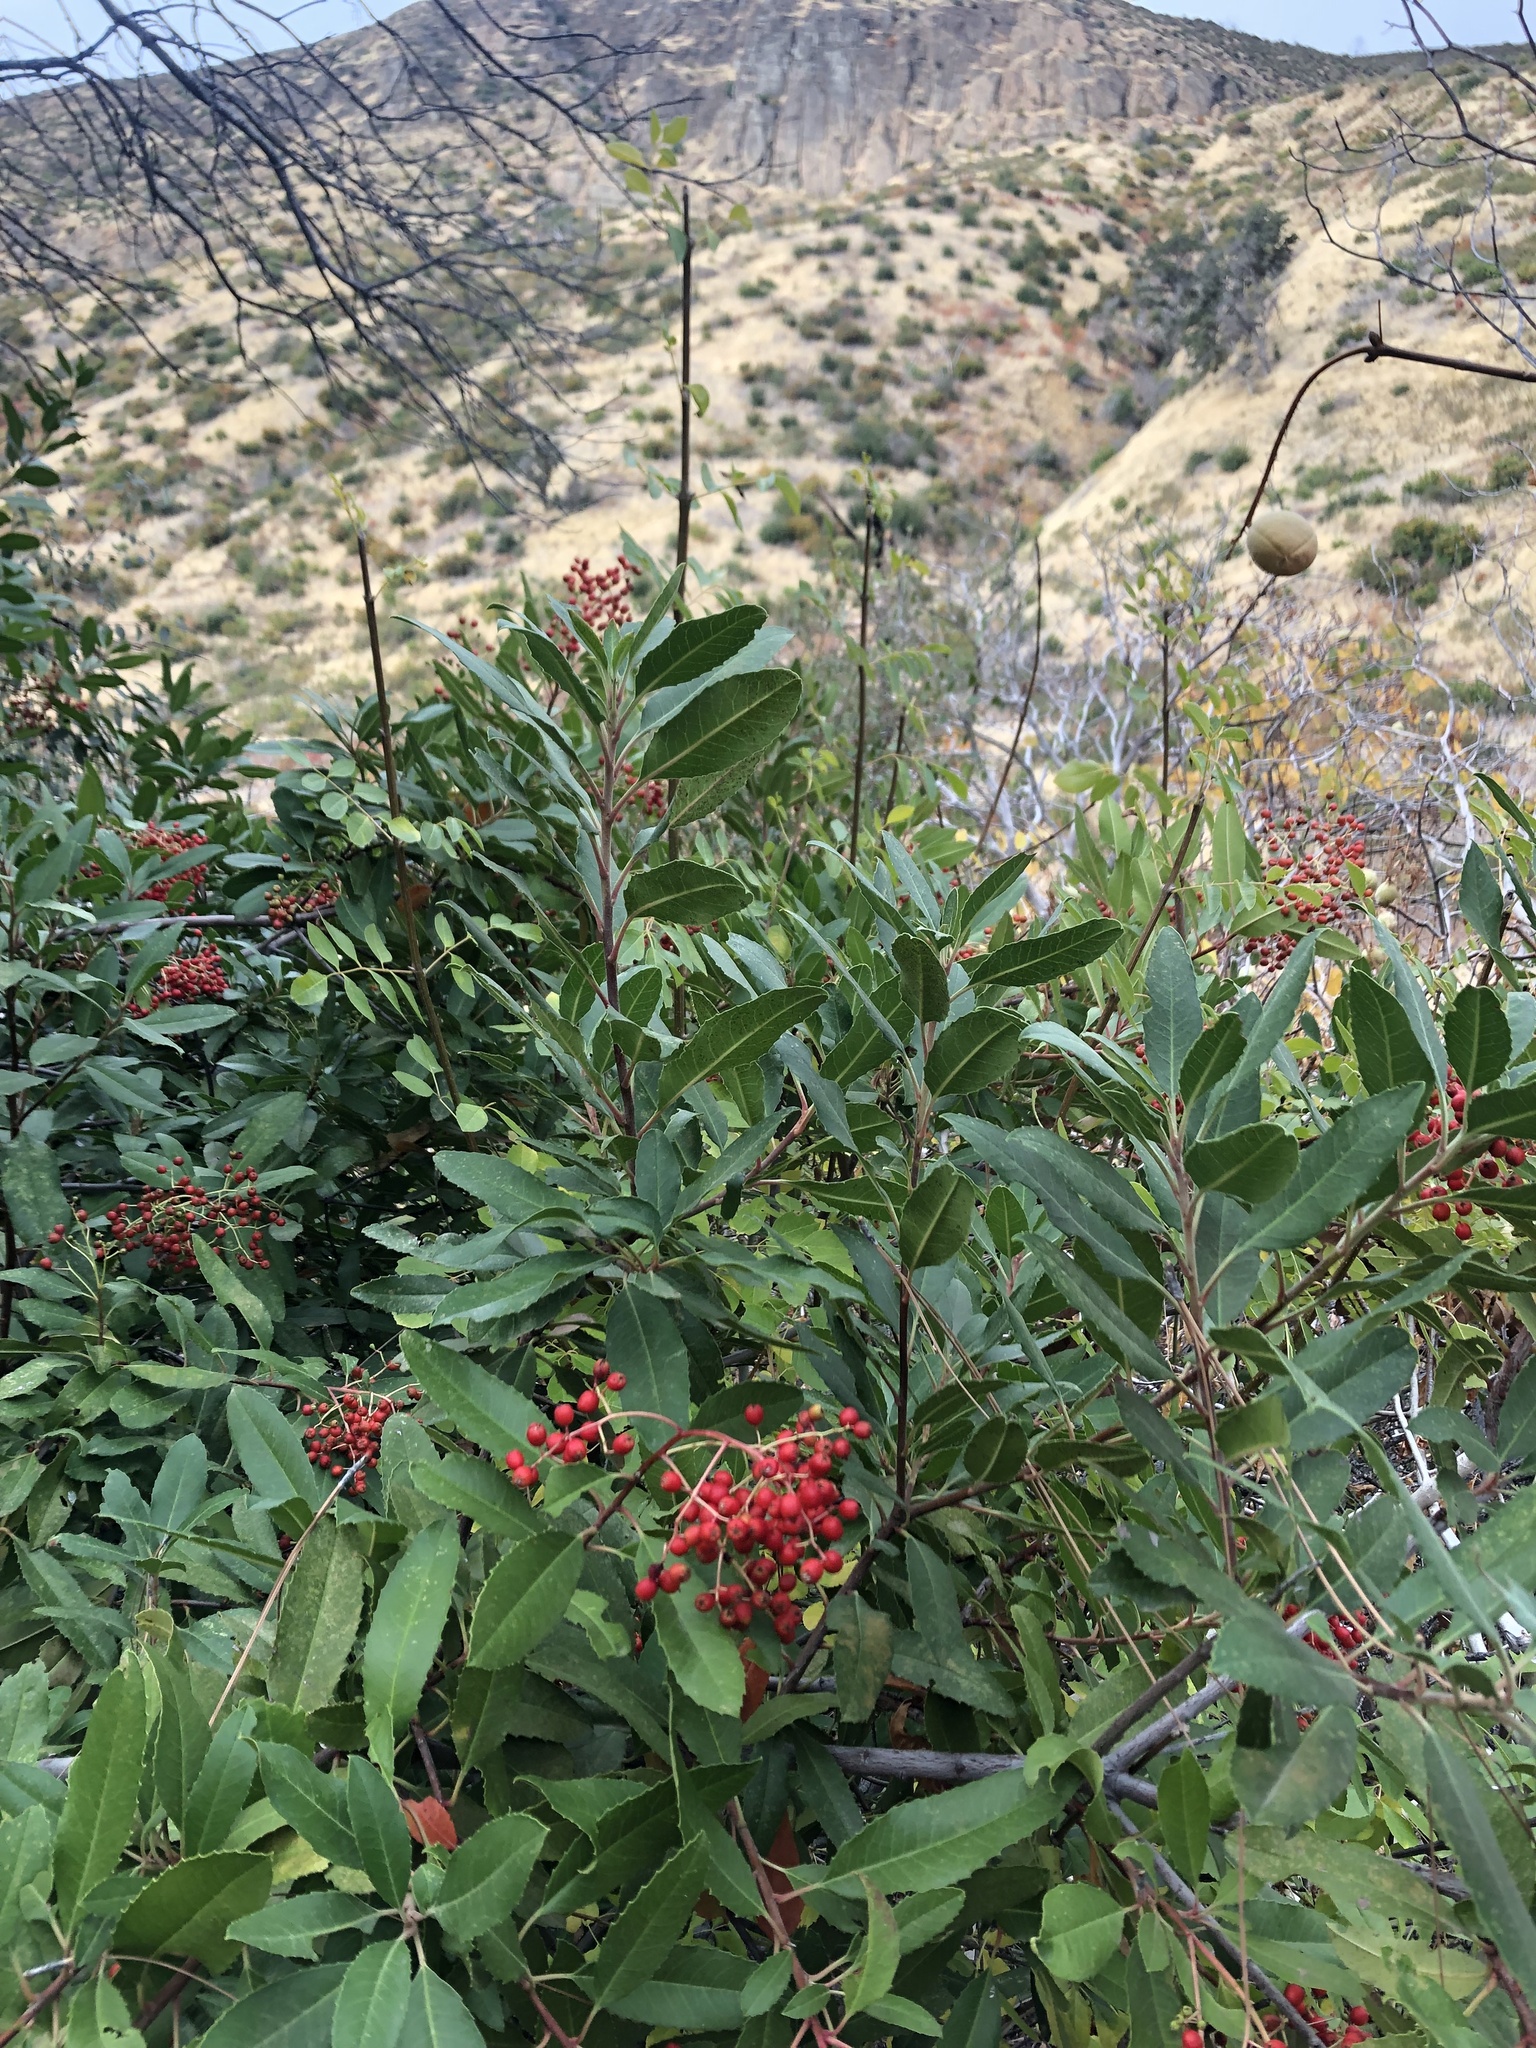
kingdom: Plantae
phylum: Tracheophyta
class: Magnoliopsida
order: Rosales
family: Rosaceae
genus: Heteromeles
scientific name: Heteromeles arbutifolia
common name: California-holly
